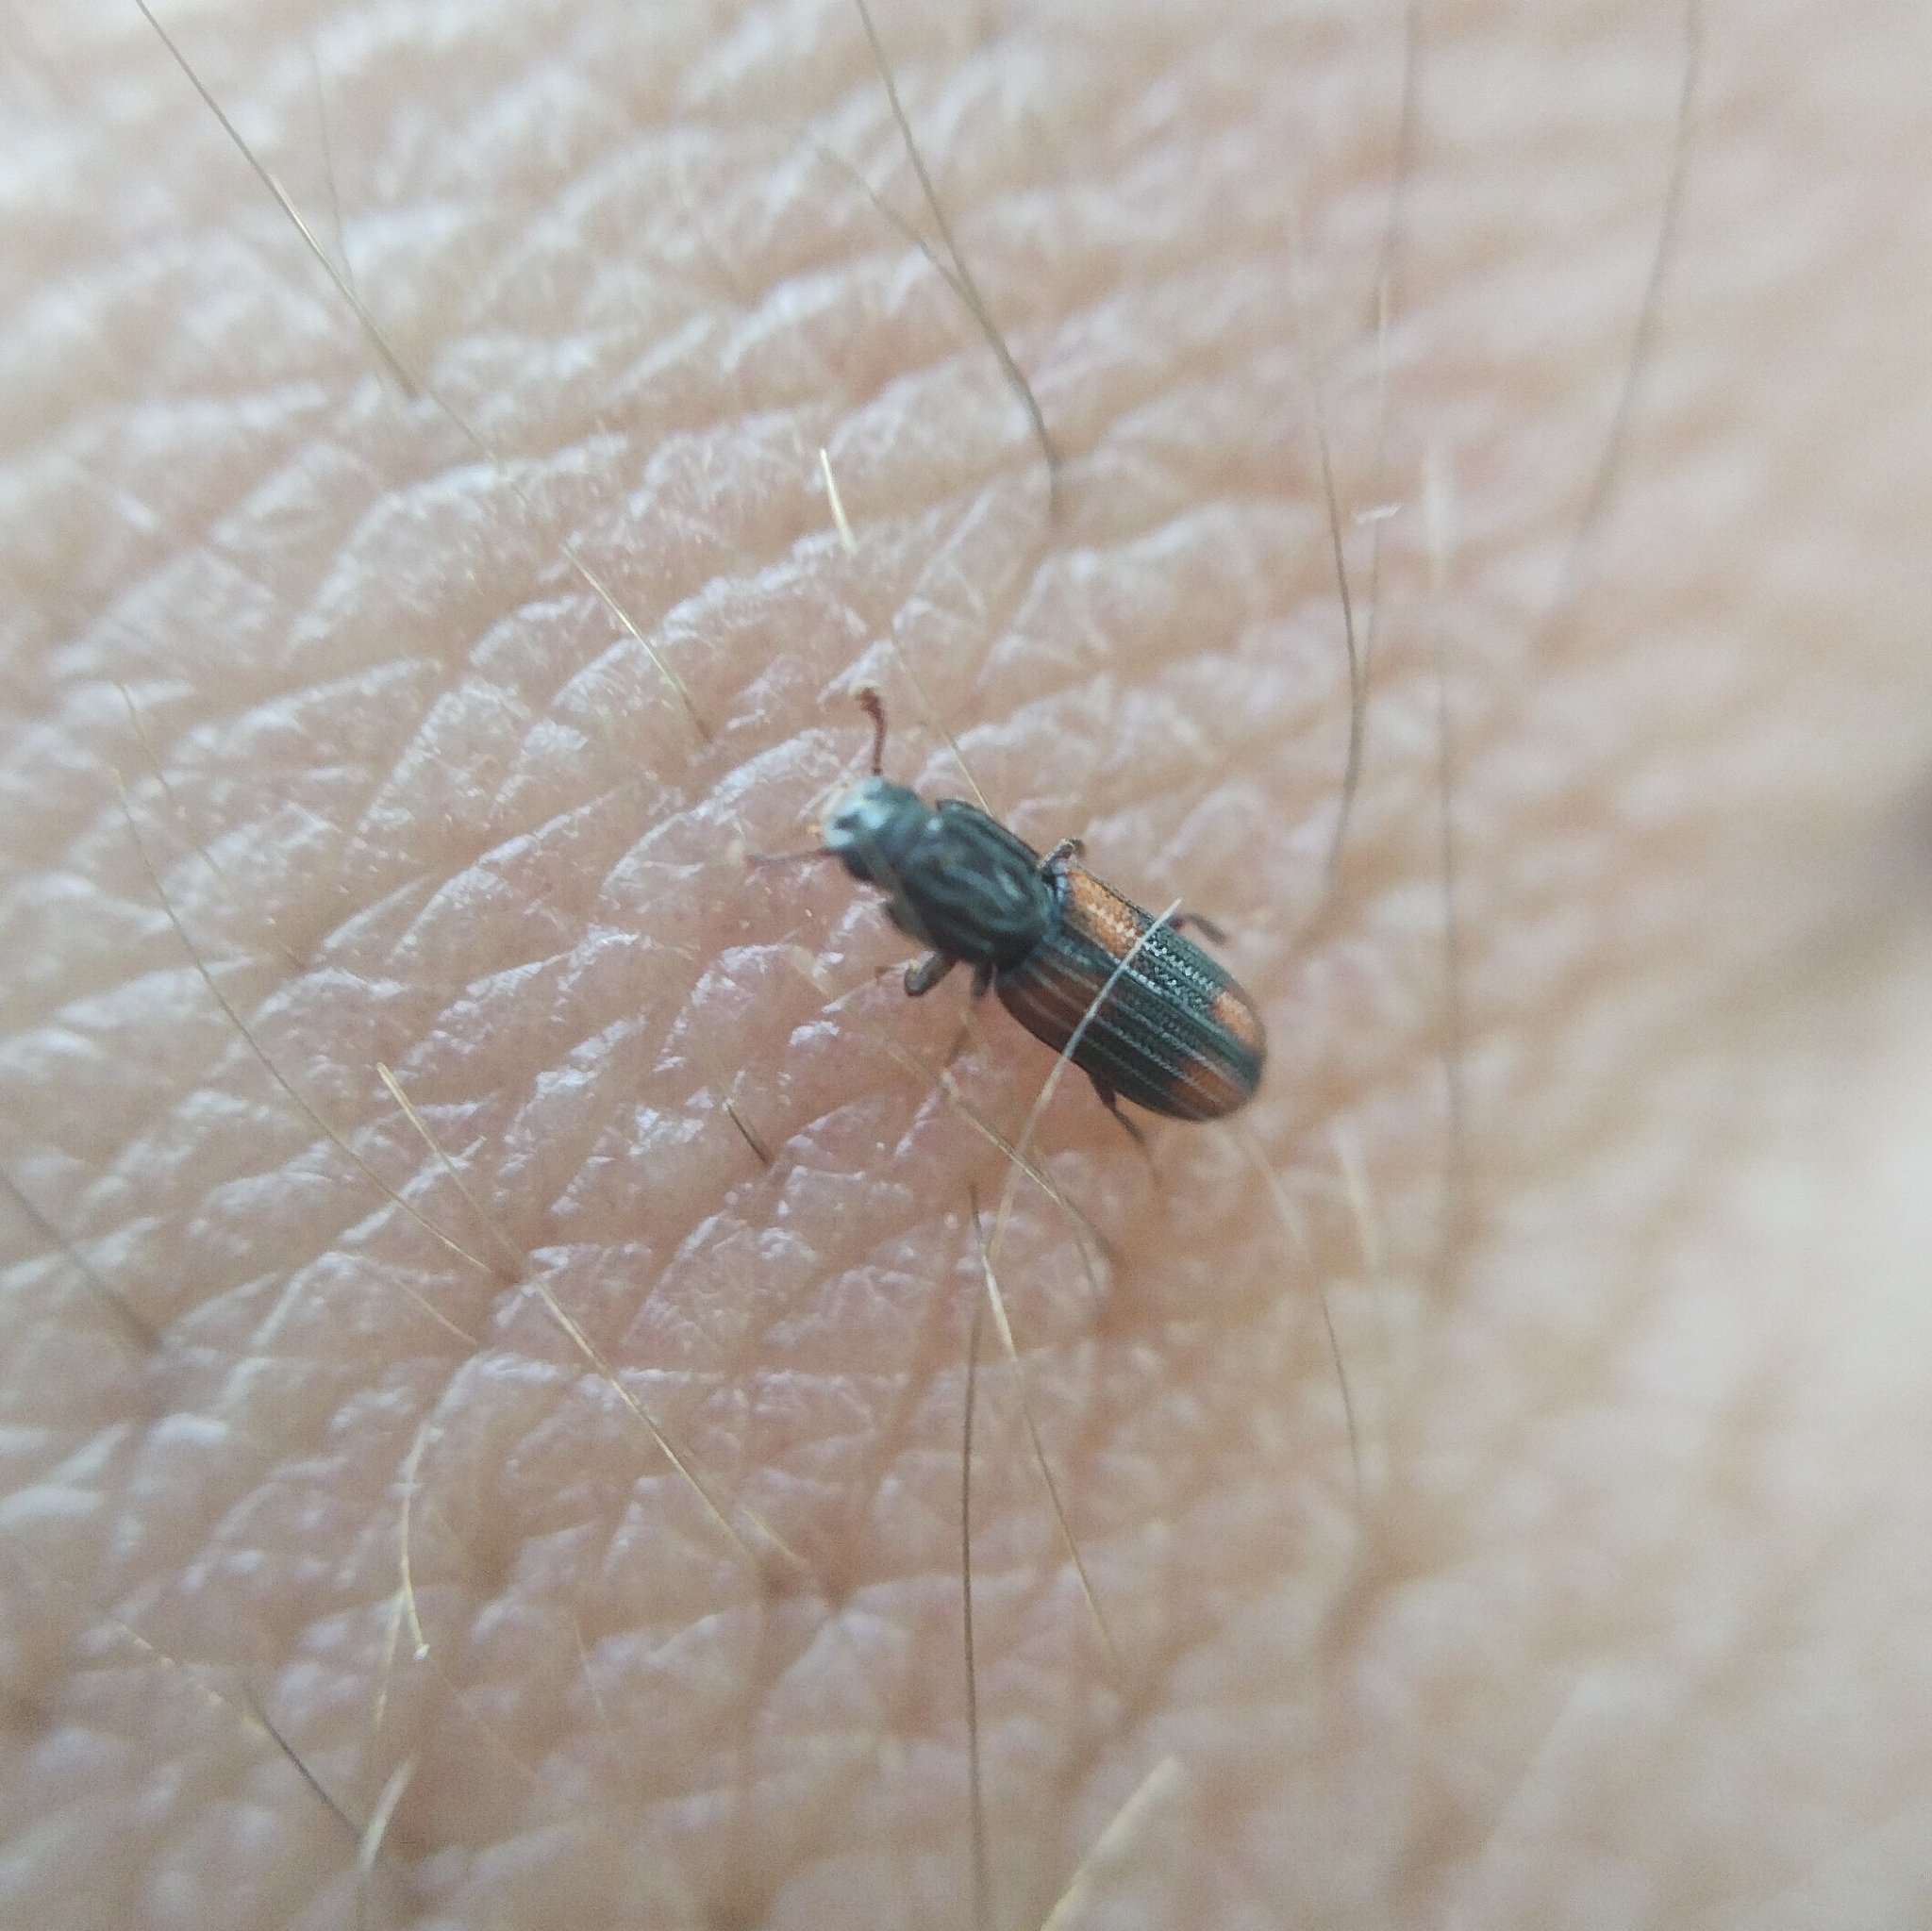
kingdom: Animalia
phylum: Arthropoda
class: Insecta
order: Coleoptera
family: Zopheridae
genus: Bitoma
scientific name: Bitoma crenata
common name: Bark beetle
